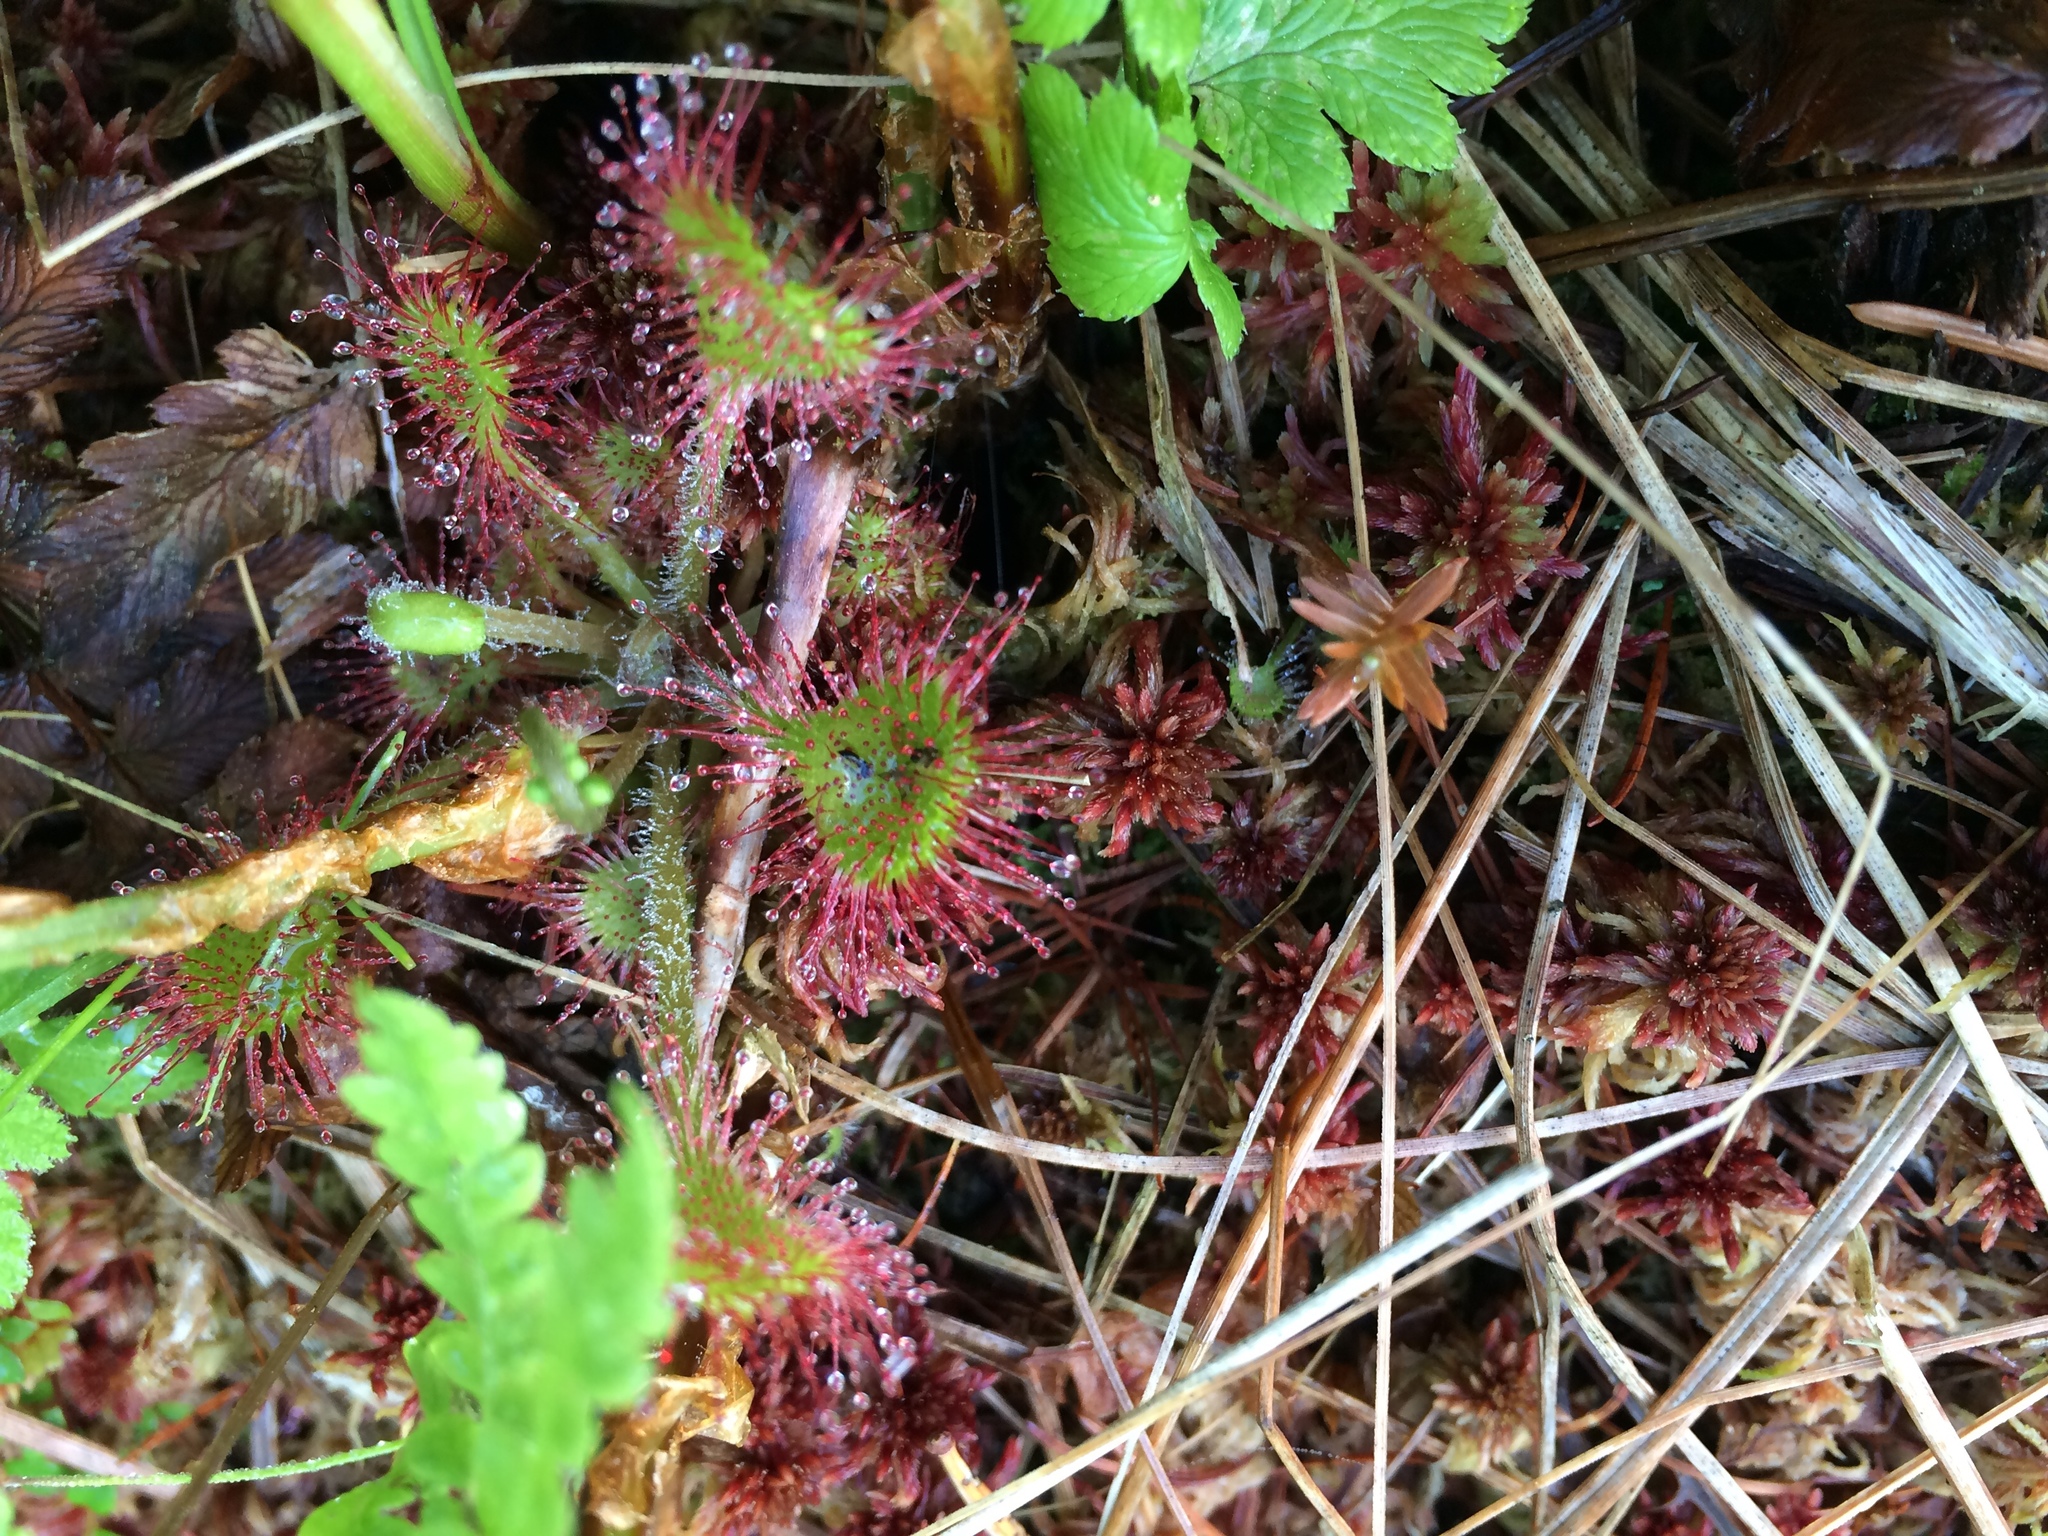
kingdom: Plantae
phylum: Tracheophyta
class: Magnoliopsida
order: Caryophyllales
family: Droseraceae
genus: Drosera
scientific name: Drosera rotundifolia
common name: Round-leaved sundew
